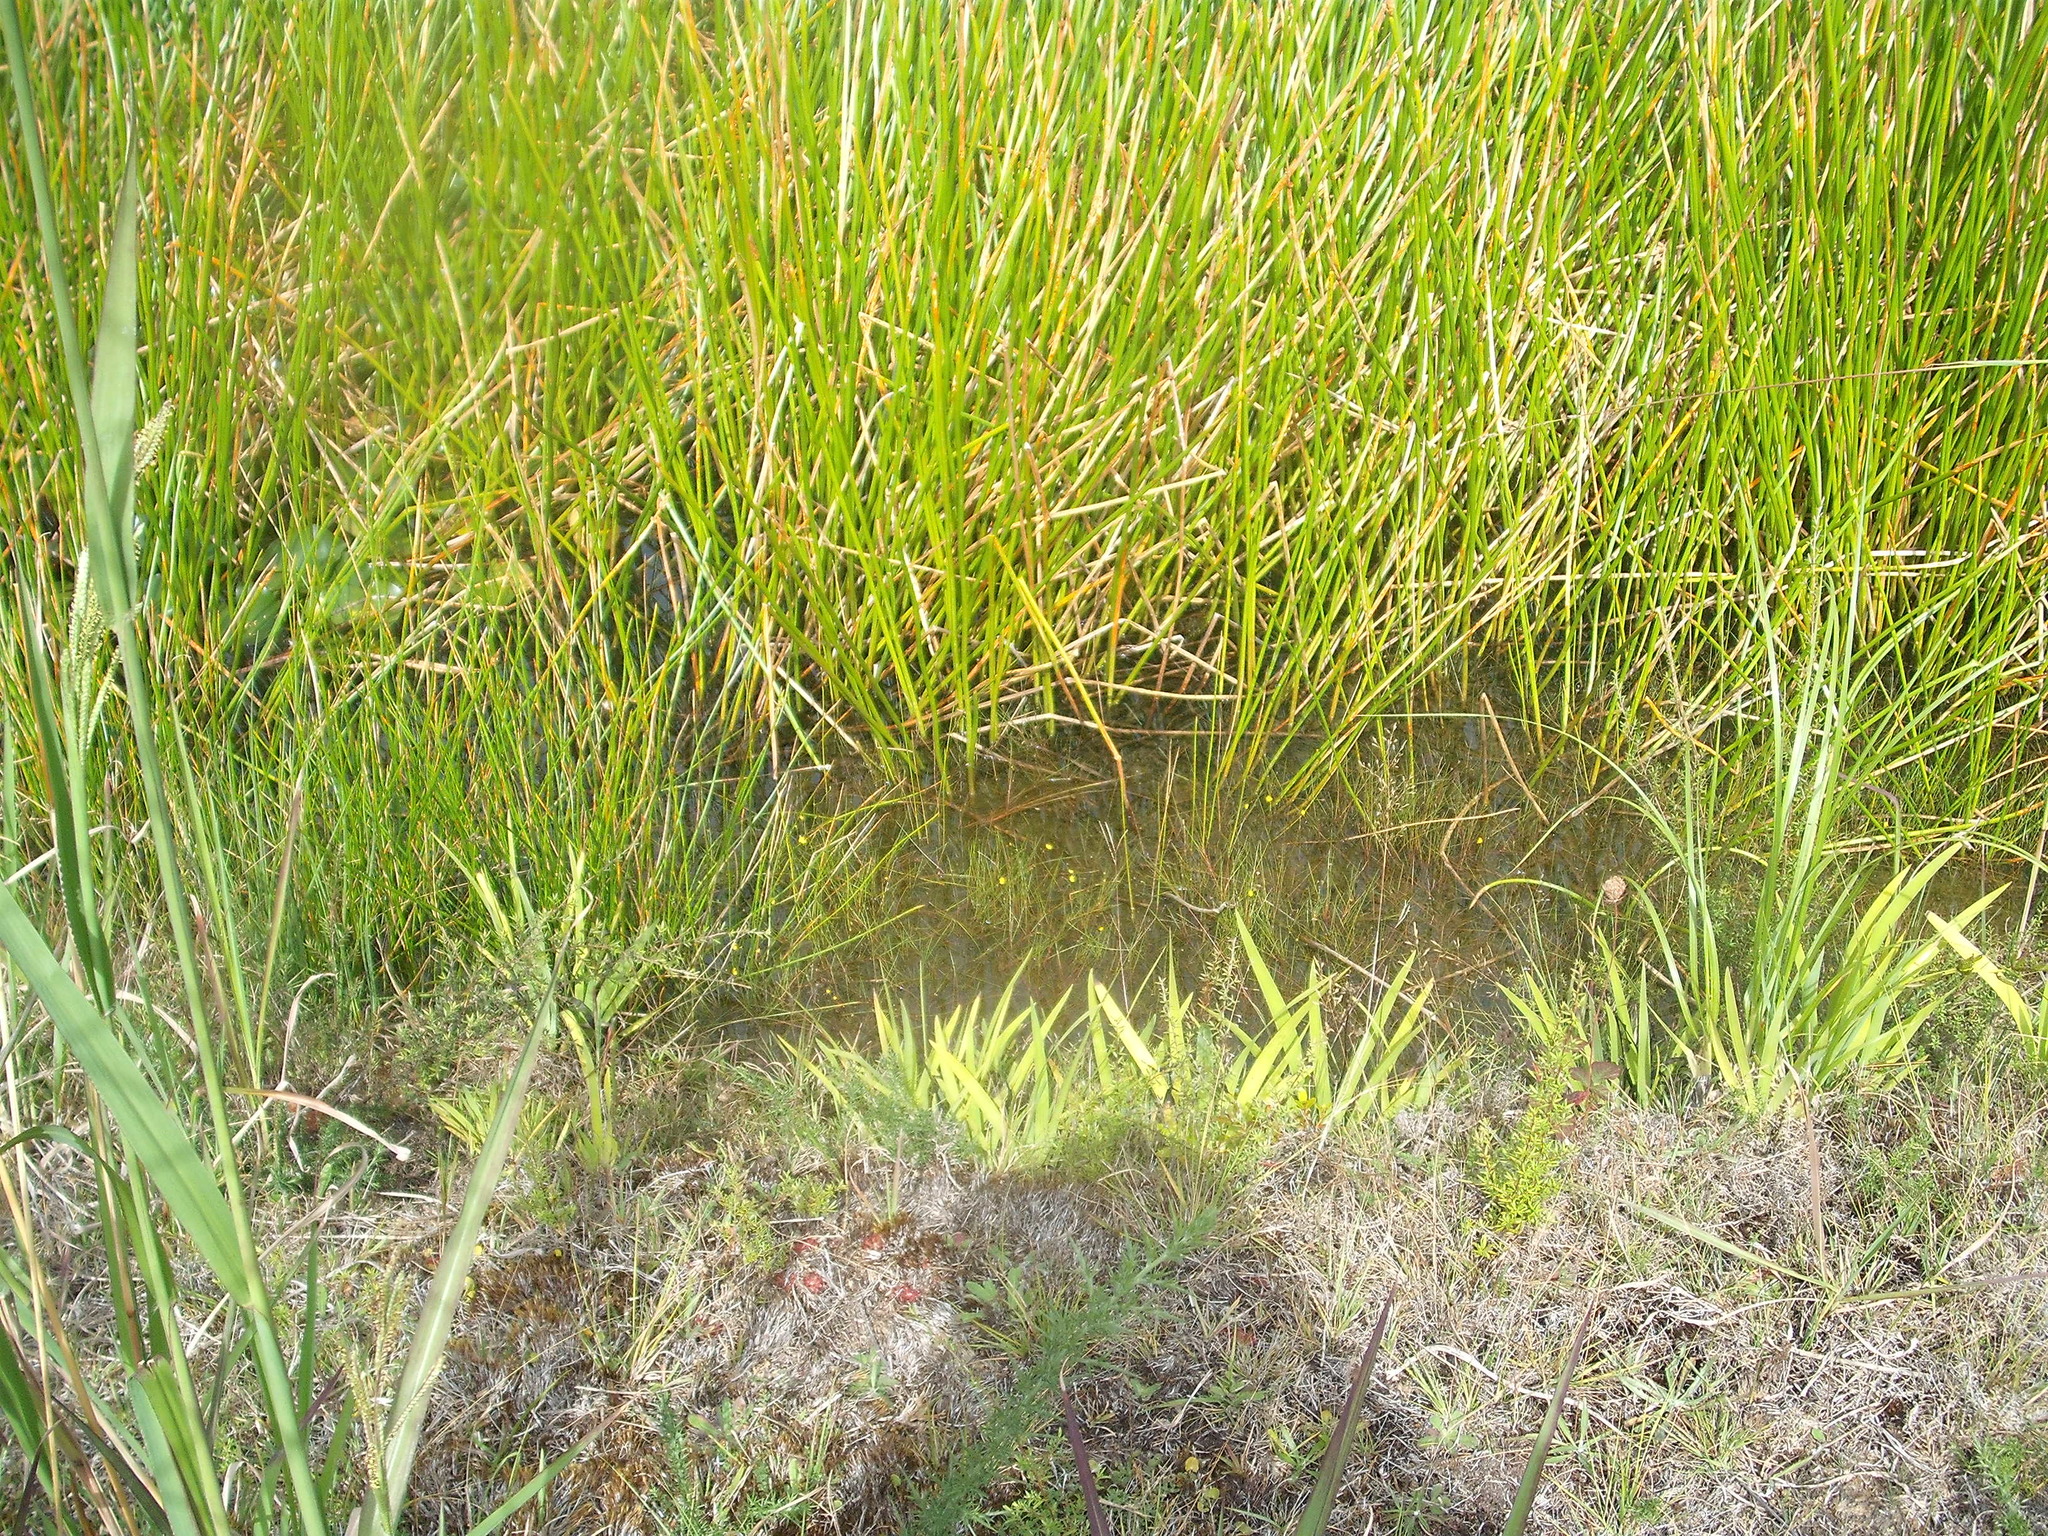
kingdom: Plantae
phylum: Tracheophyta
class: Magnoliopsida
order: Lamiales
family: Lentibulariaceae
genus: Utricularia
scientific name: Utricularia gibba
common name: Humped bladderwort
